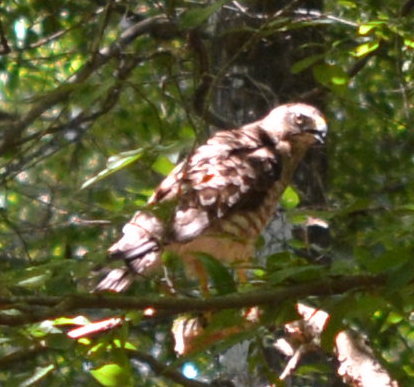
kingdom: Animalia
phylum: Chordata
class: Aves
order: Accipitriformes
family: Accipitridae
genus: Buteo
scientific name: Buteo platypterus
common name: Broad-winged hawk
